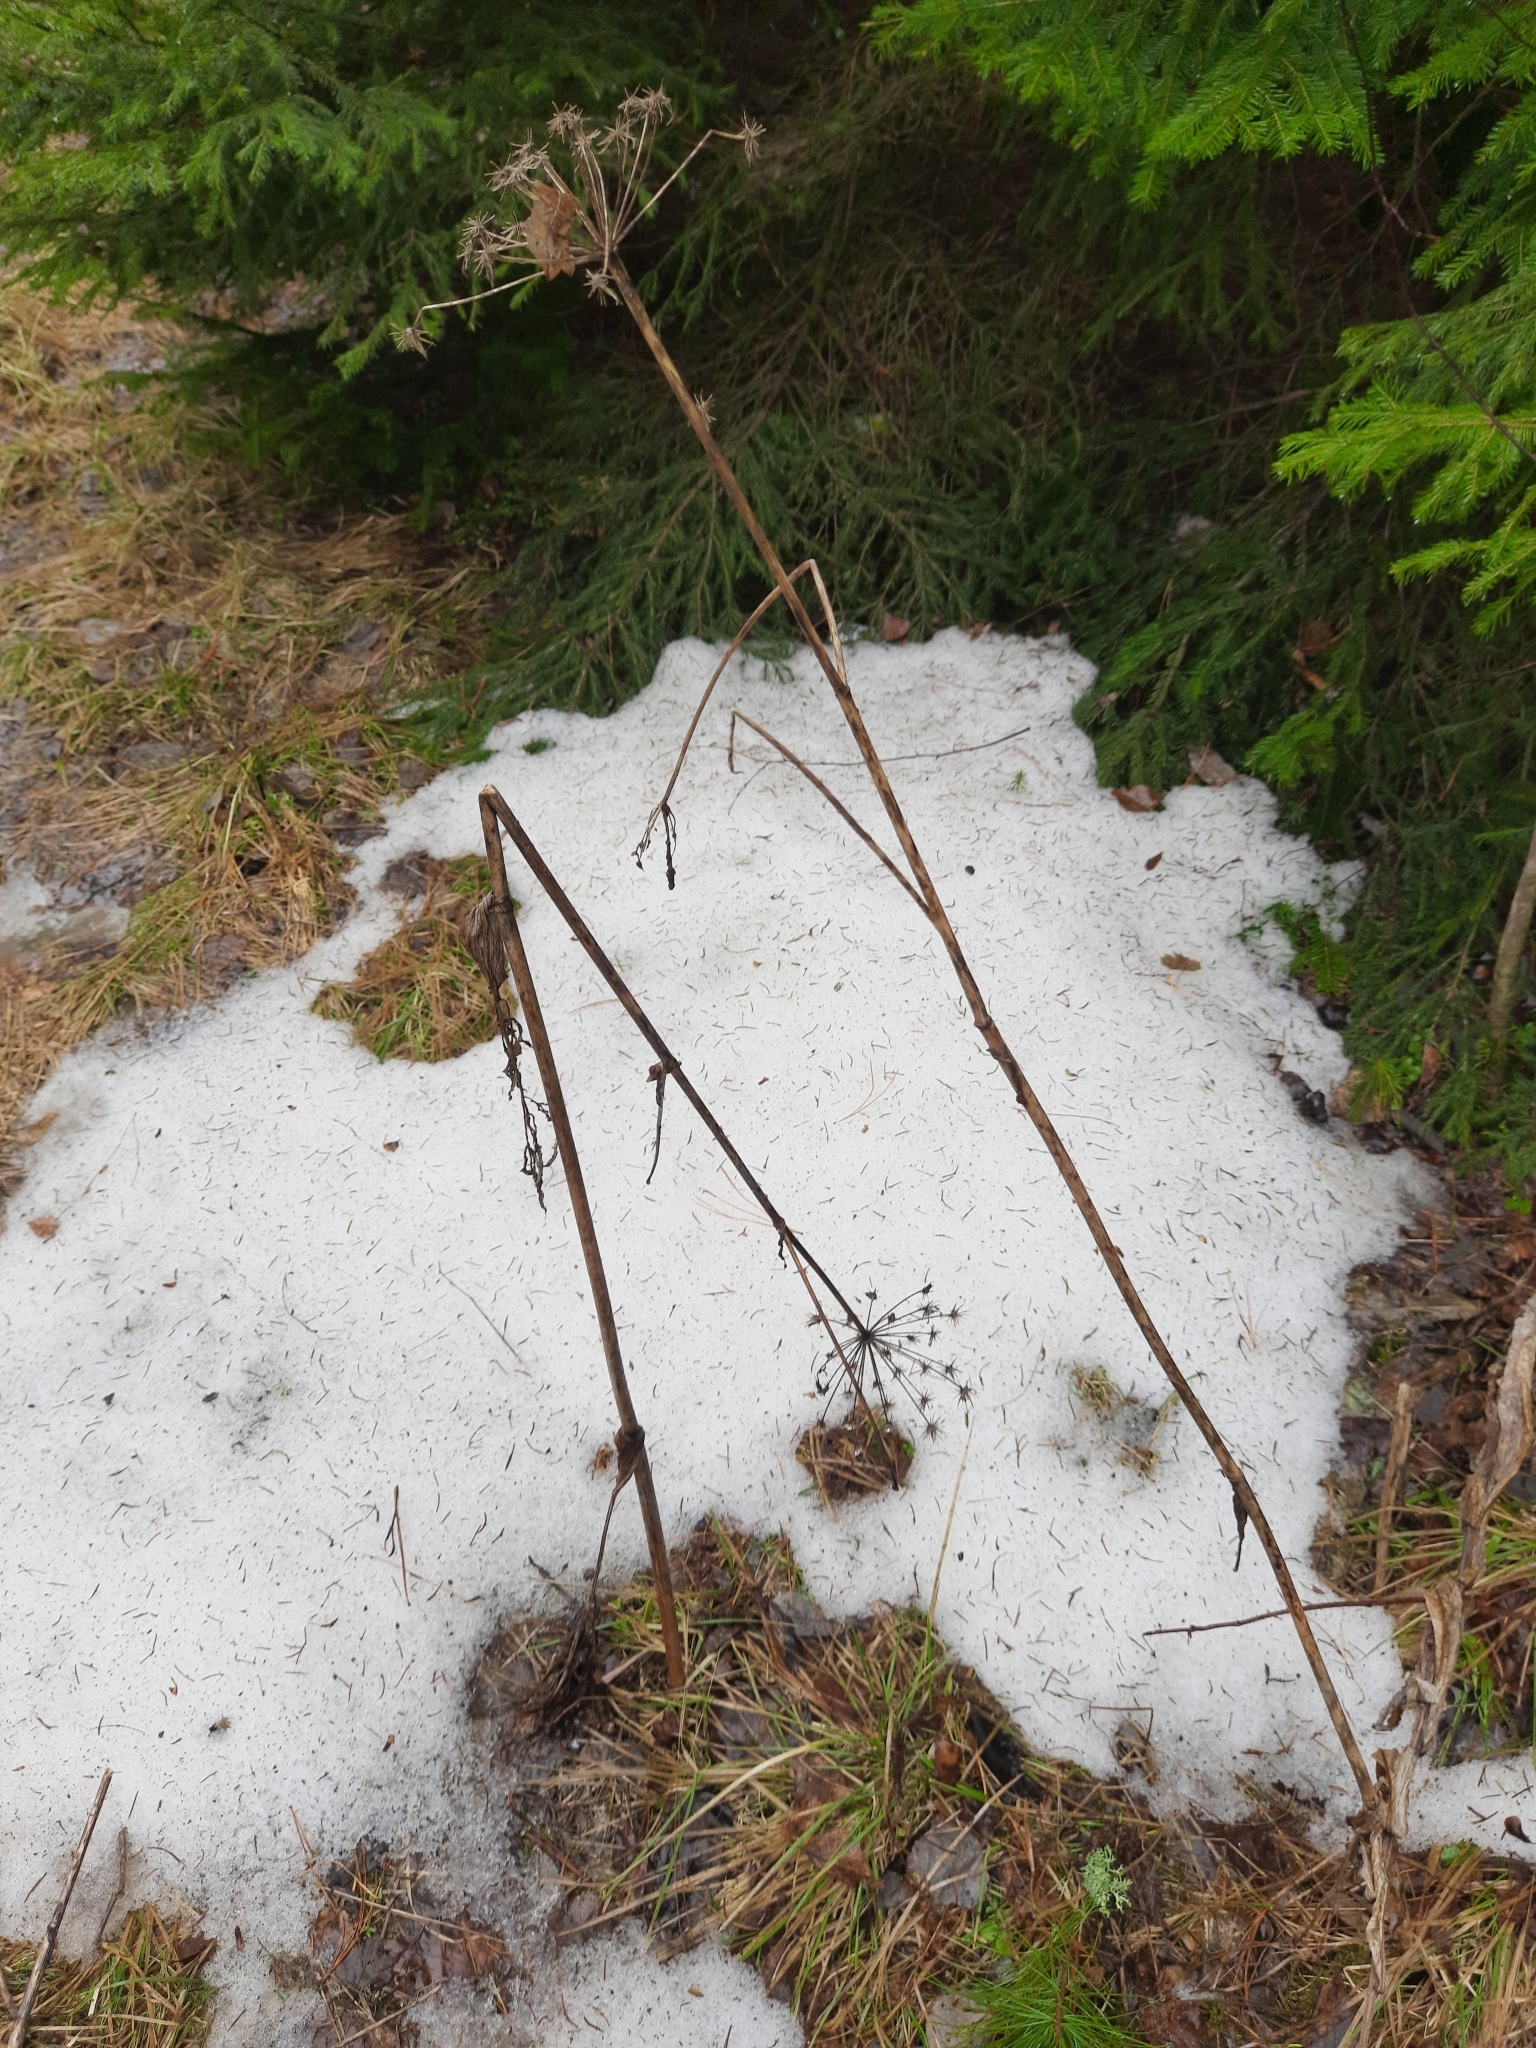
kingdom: Plantae
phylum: Tracheophyta
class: Magnoliopsida
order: Apiales
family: Apiaceae
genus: Angelica
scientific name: Angelica sylvestris
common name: Wild angelica
